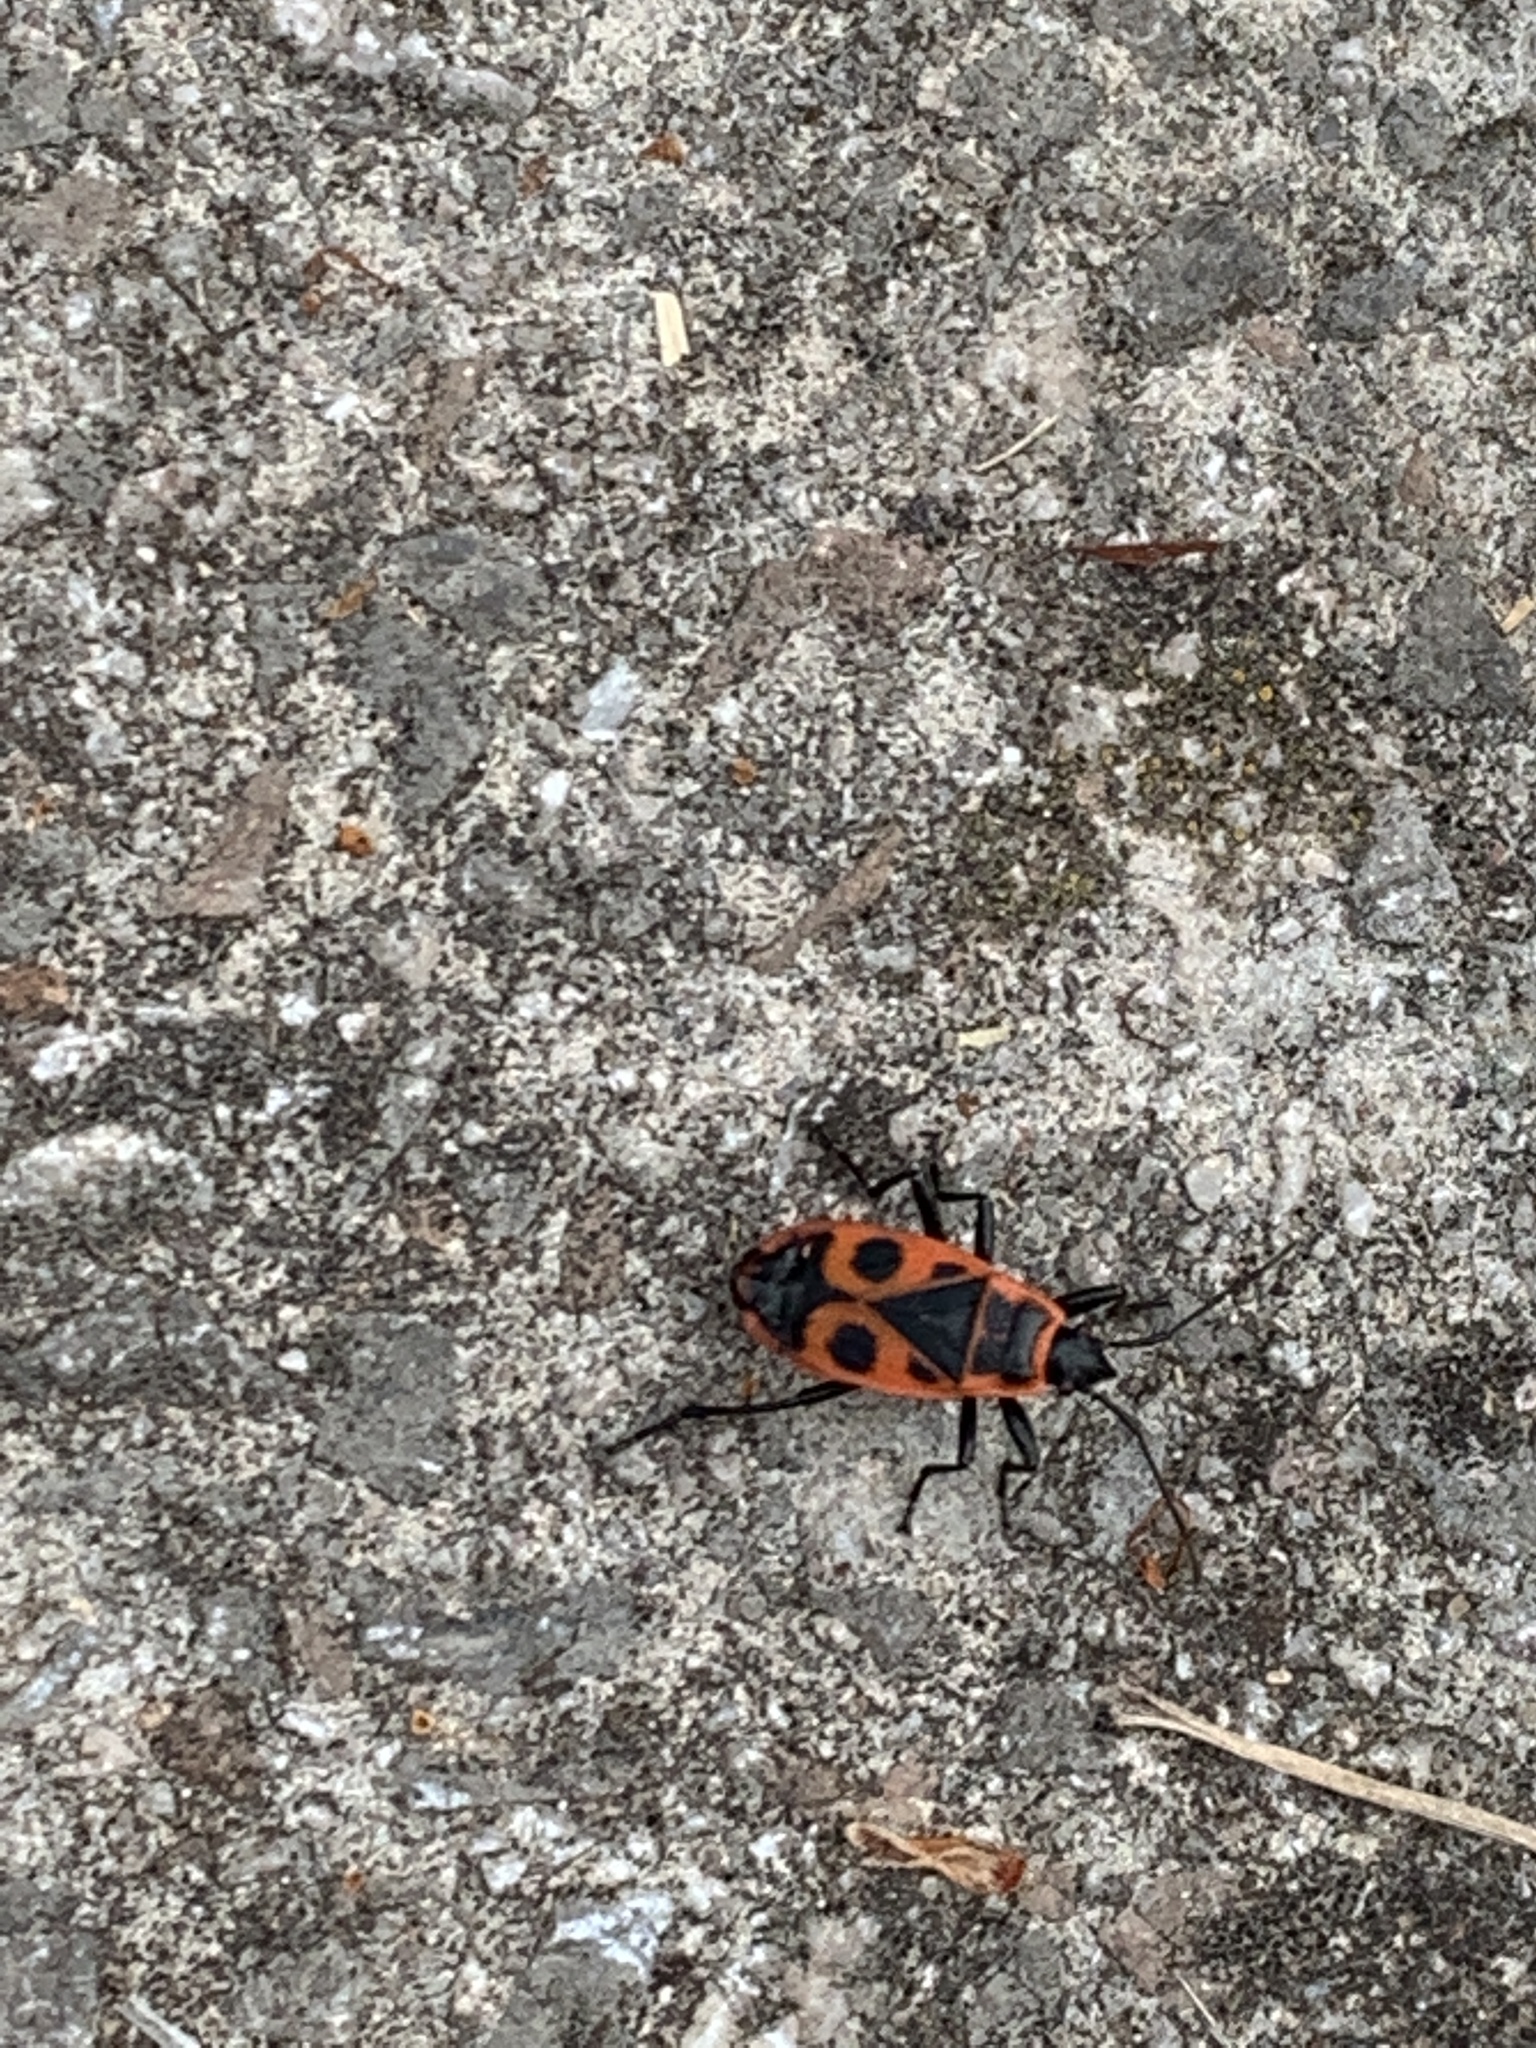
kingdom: Animalia
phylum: Arthropoda
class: Insecta
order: Hemiptera
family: Pyrrhocoridae
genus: Pyrrhocoris
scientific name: Pyrrhocoris apterus
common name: Firebug
